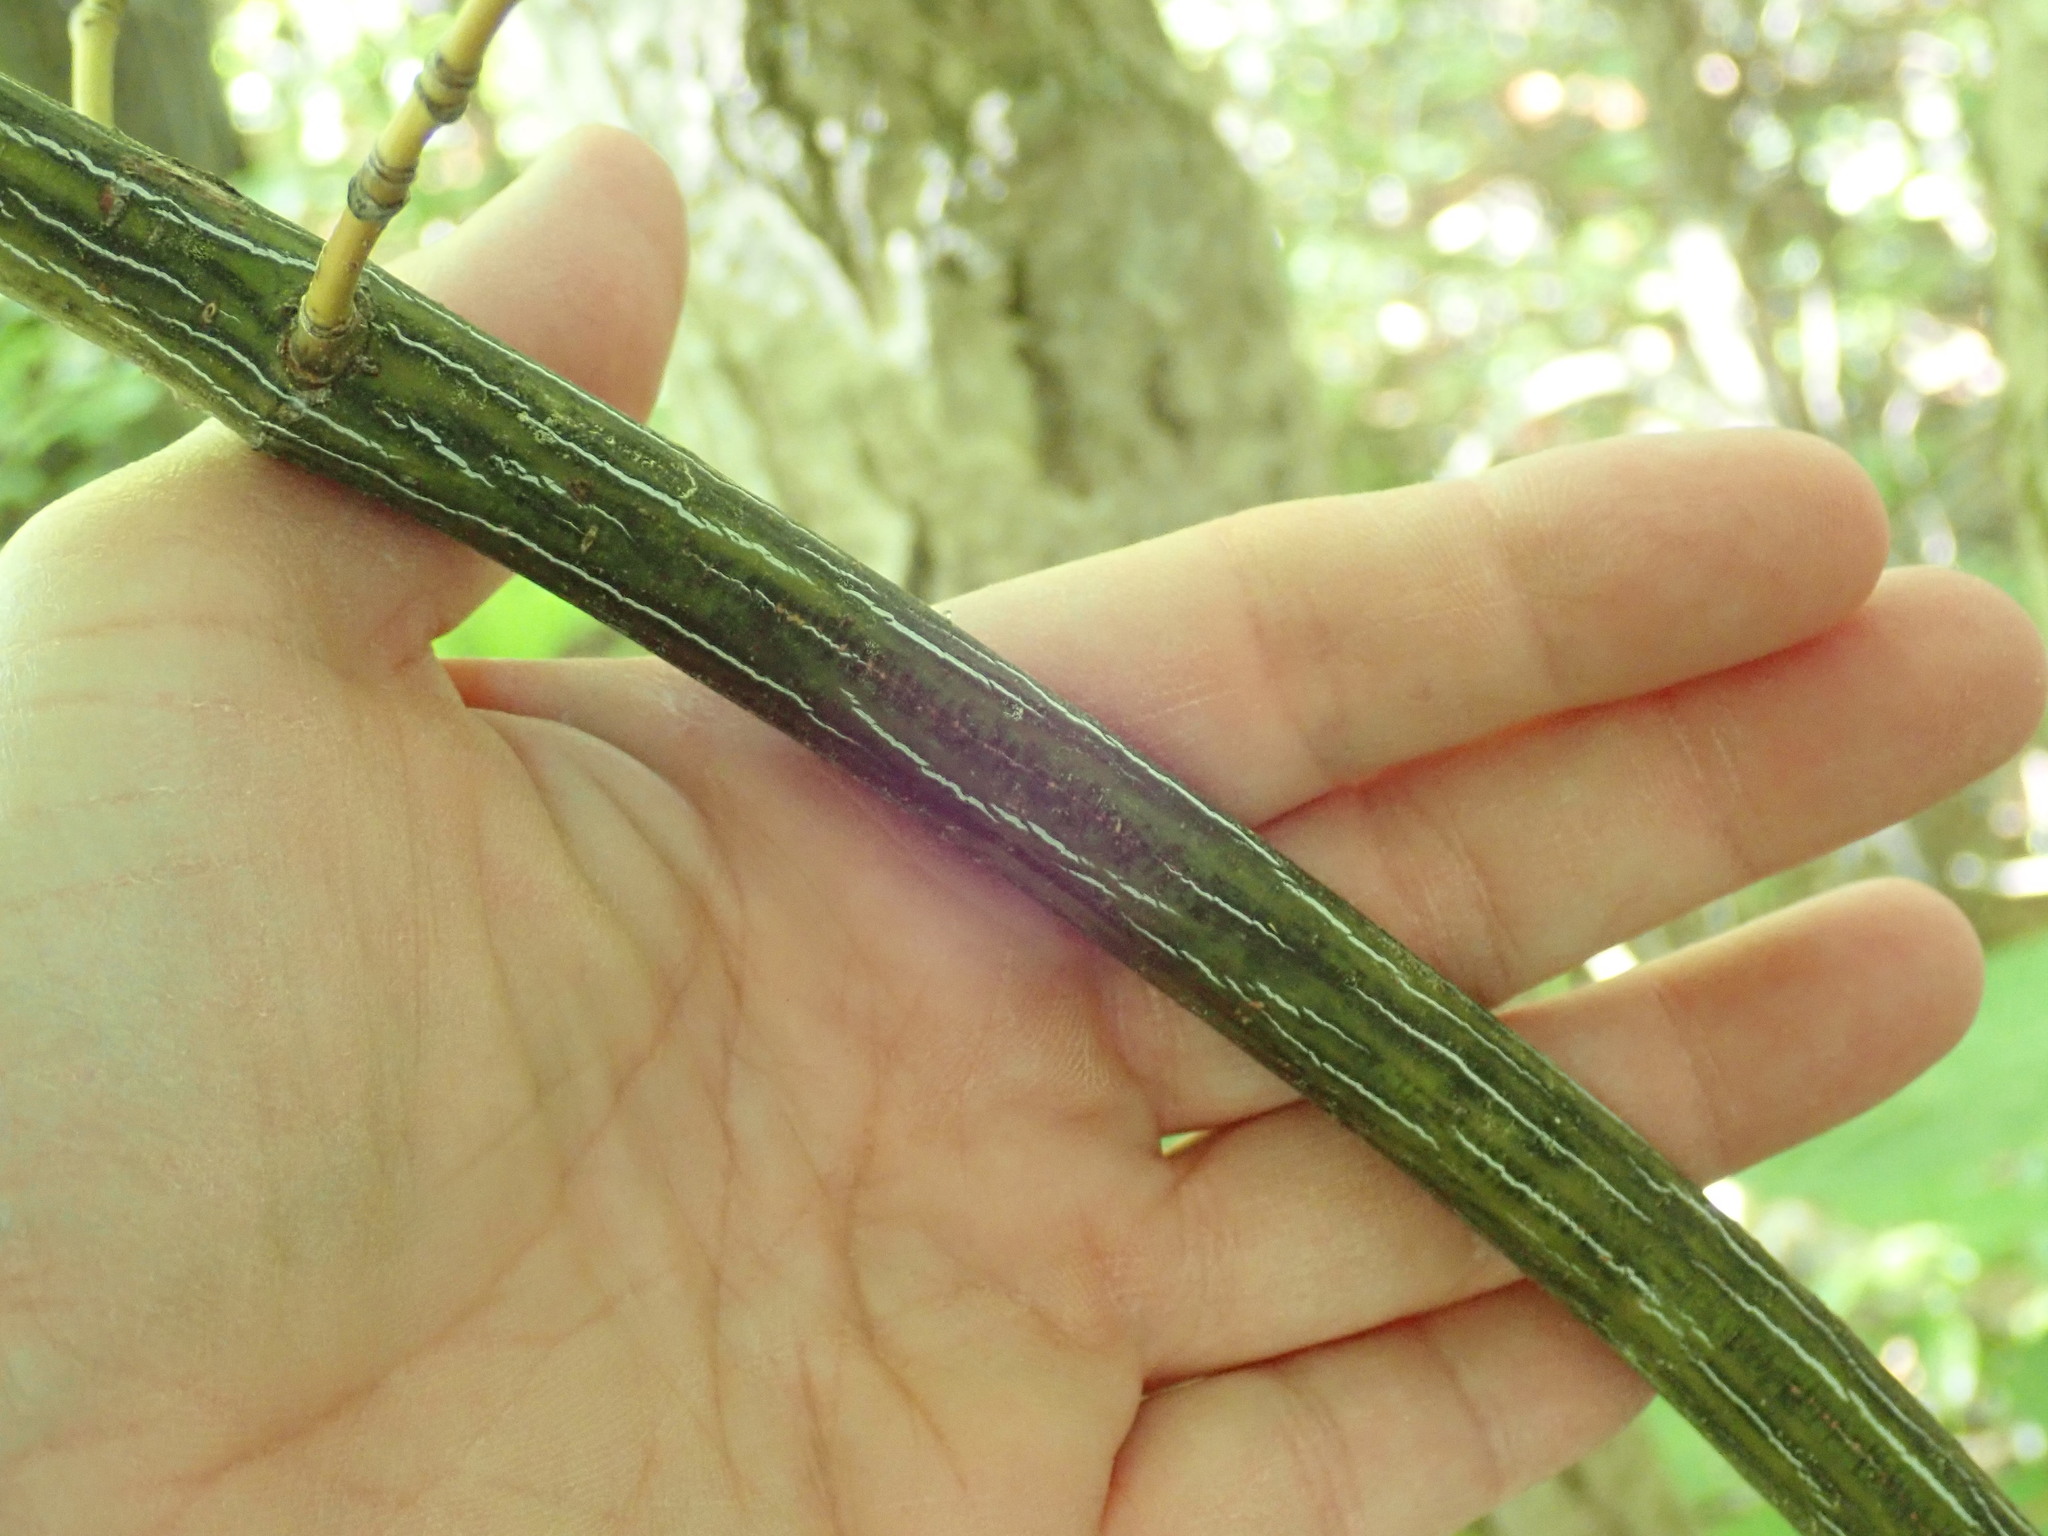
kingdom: Plantae
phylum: Tracheophyta
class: Magnoliopsida
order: Sapindales
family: Sapindaceae
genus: Acer
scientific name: Acer pensylvanicum
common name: Moosewood
